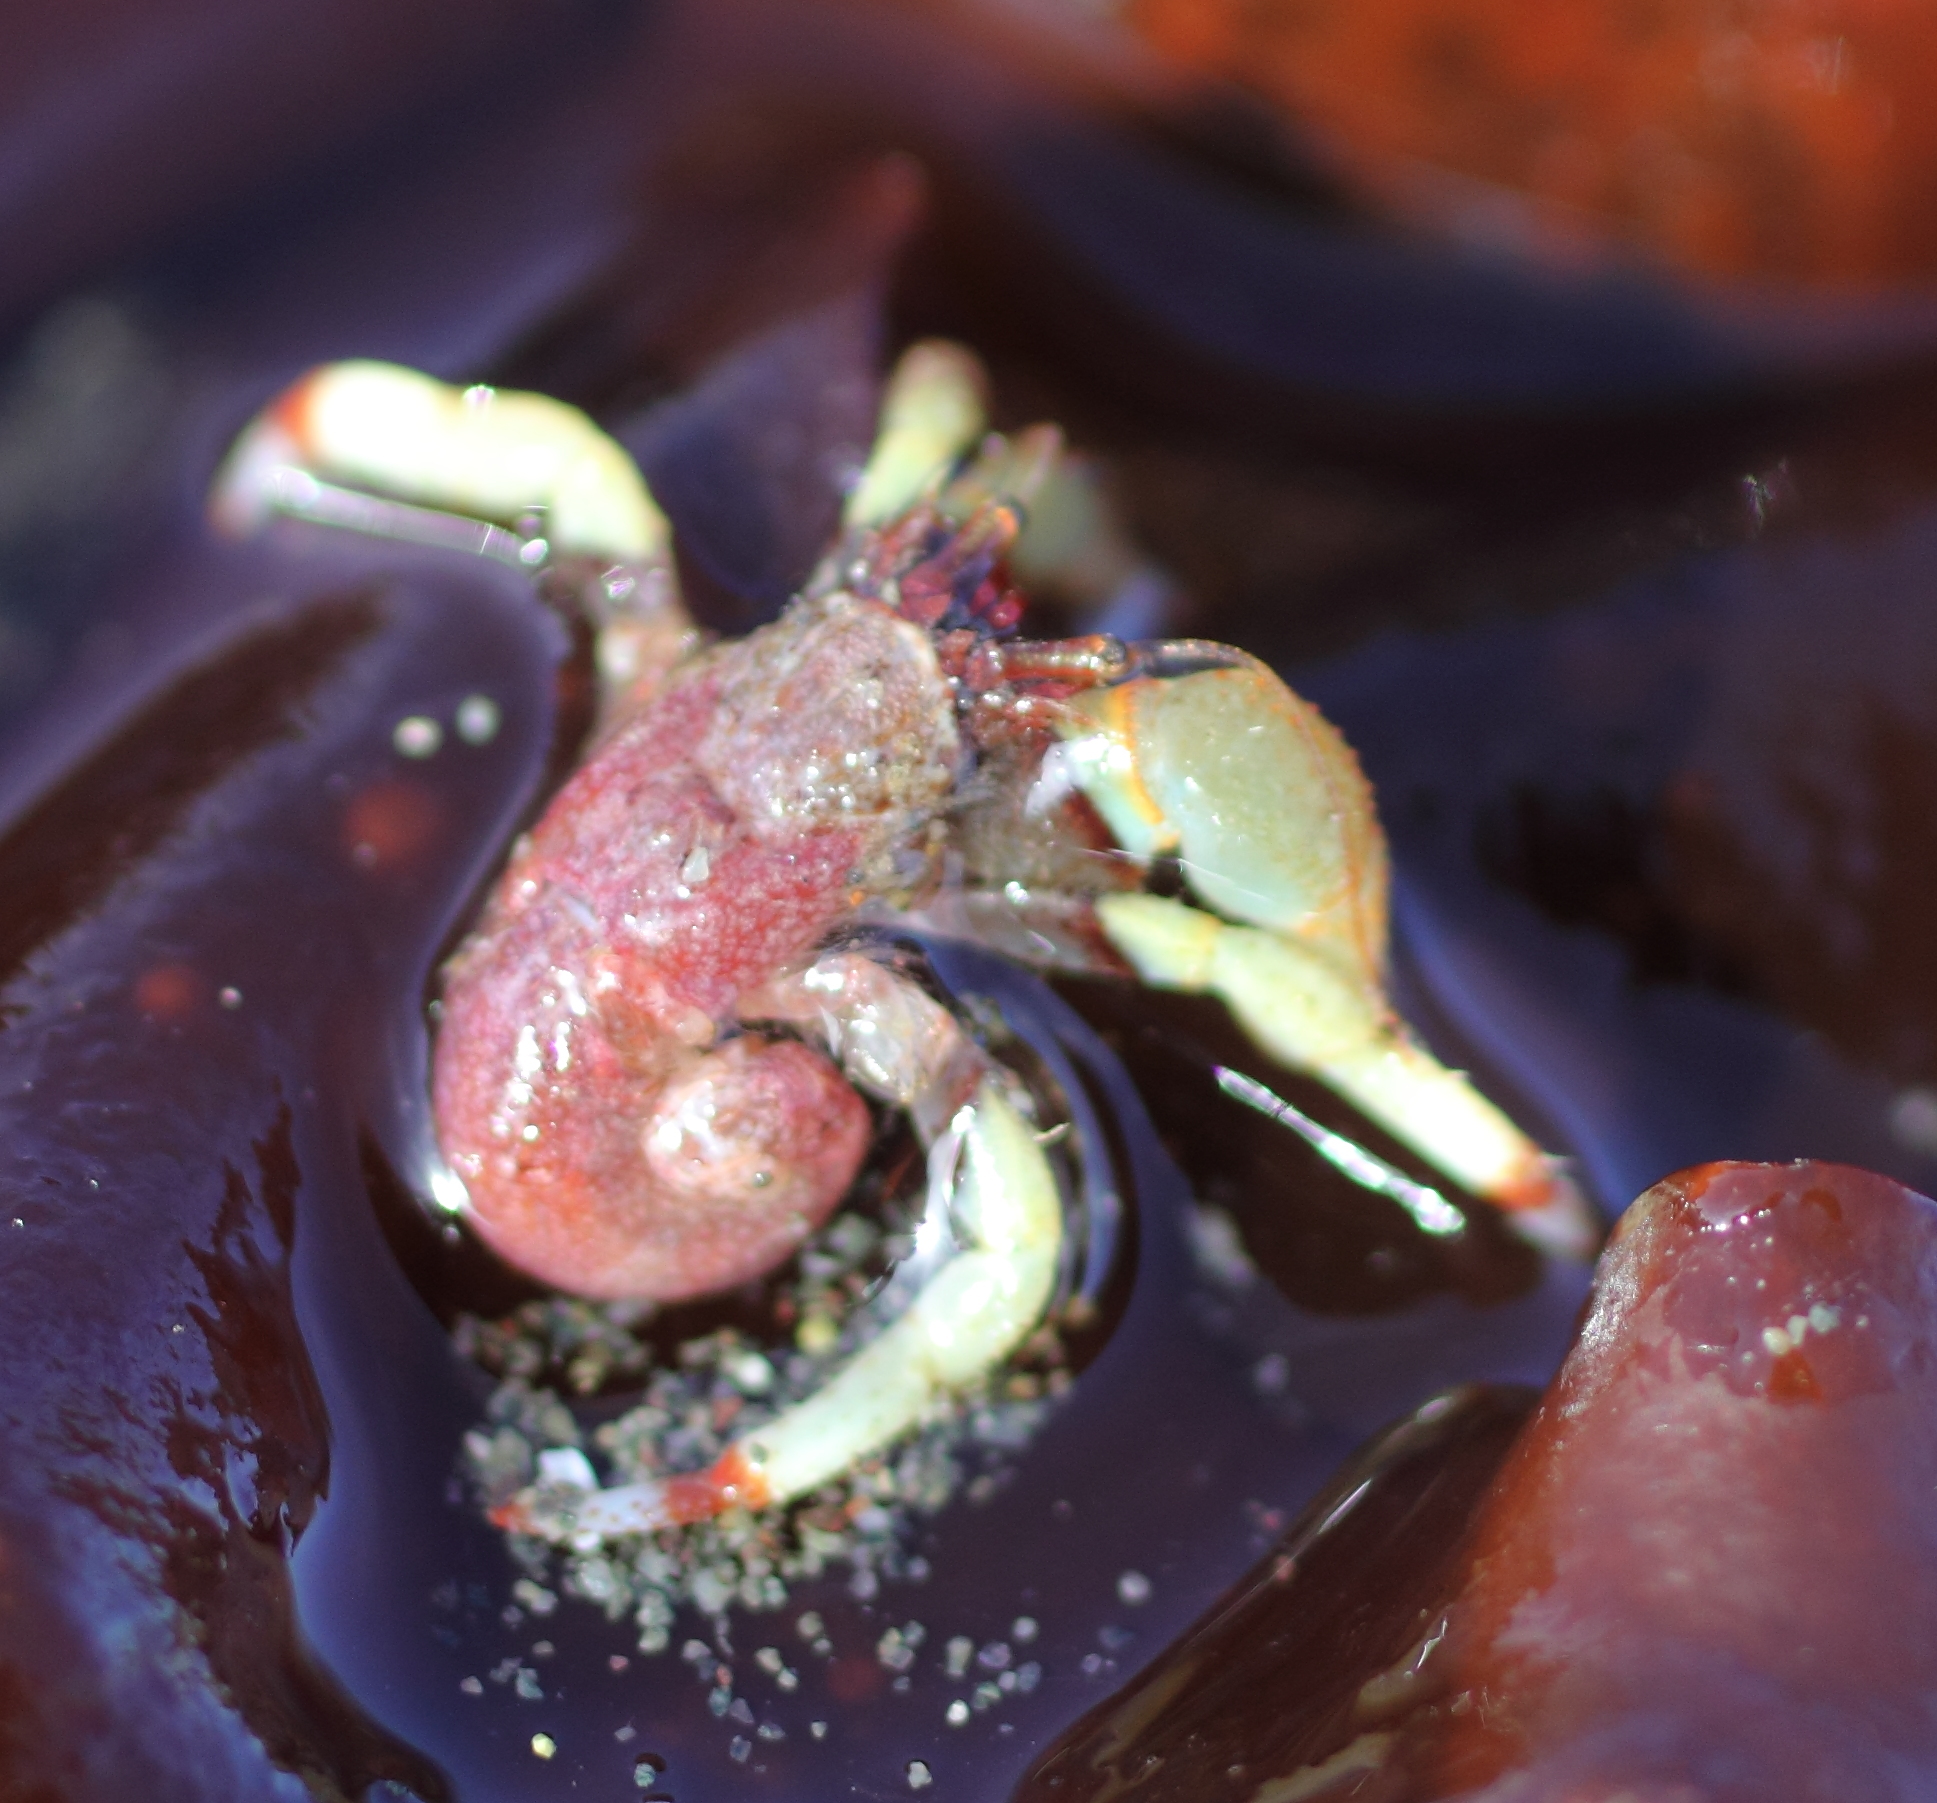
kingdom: Animalia
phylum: Arthropoda
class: Malacostraca
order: Decapoda
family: Paguridae
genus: Pagurus
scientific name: Pagurus beringanus
